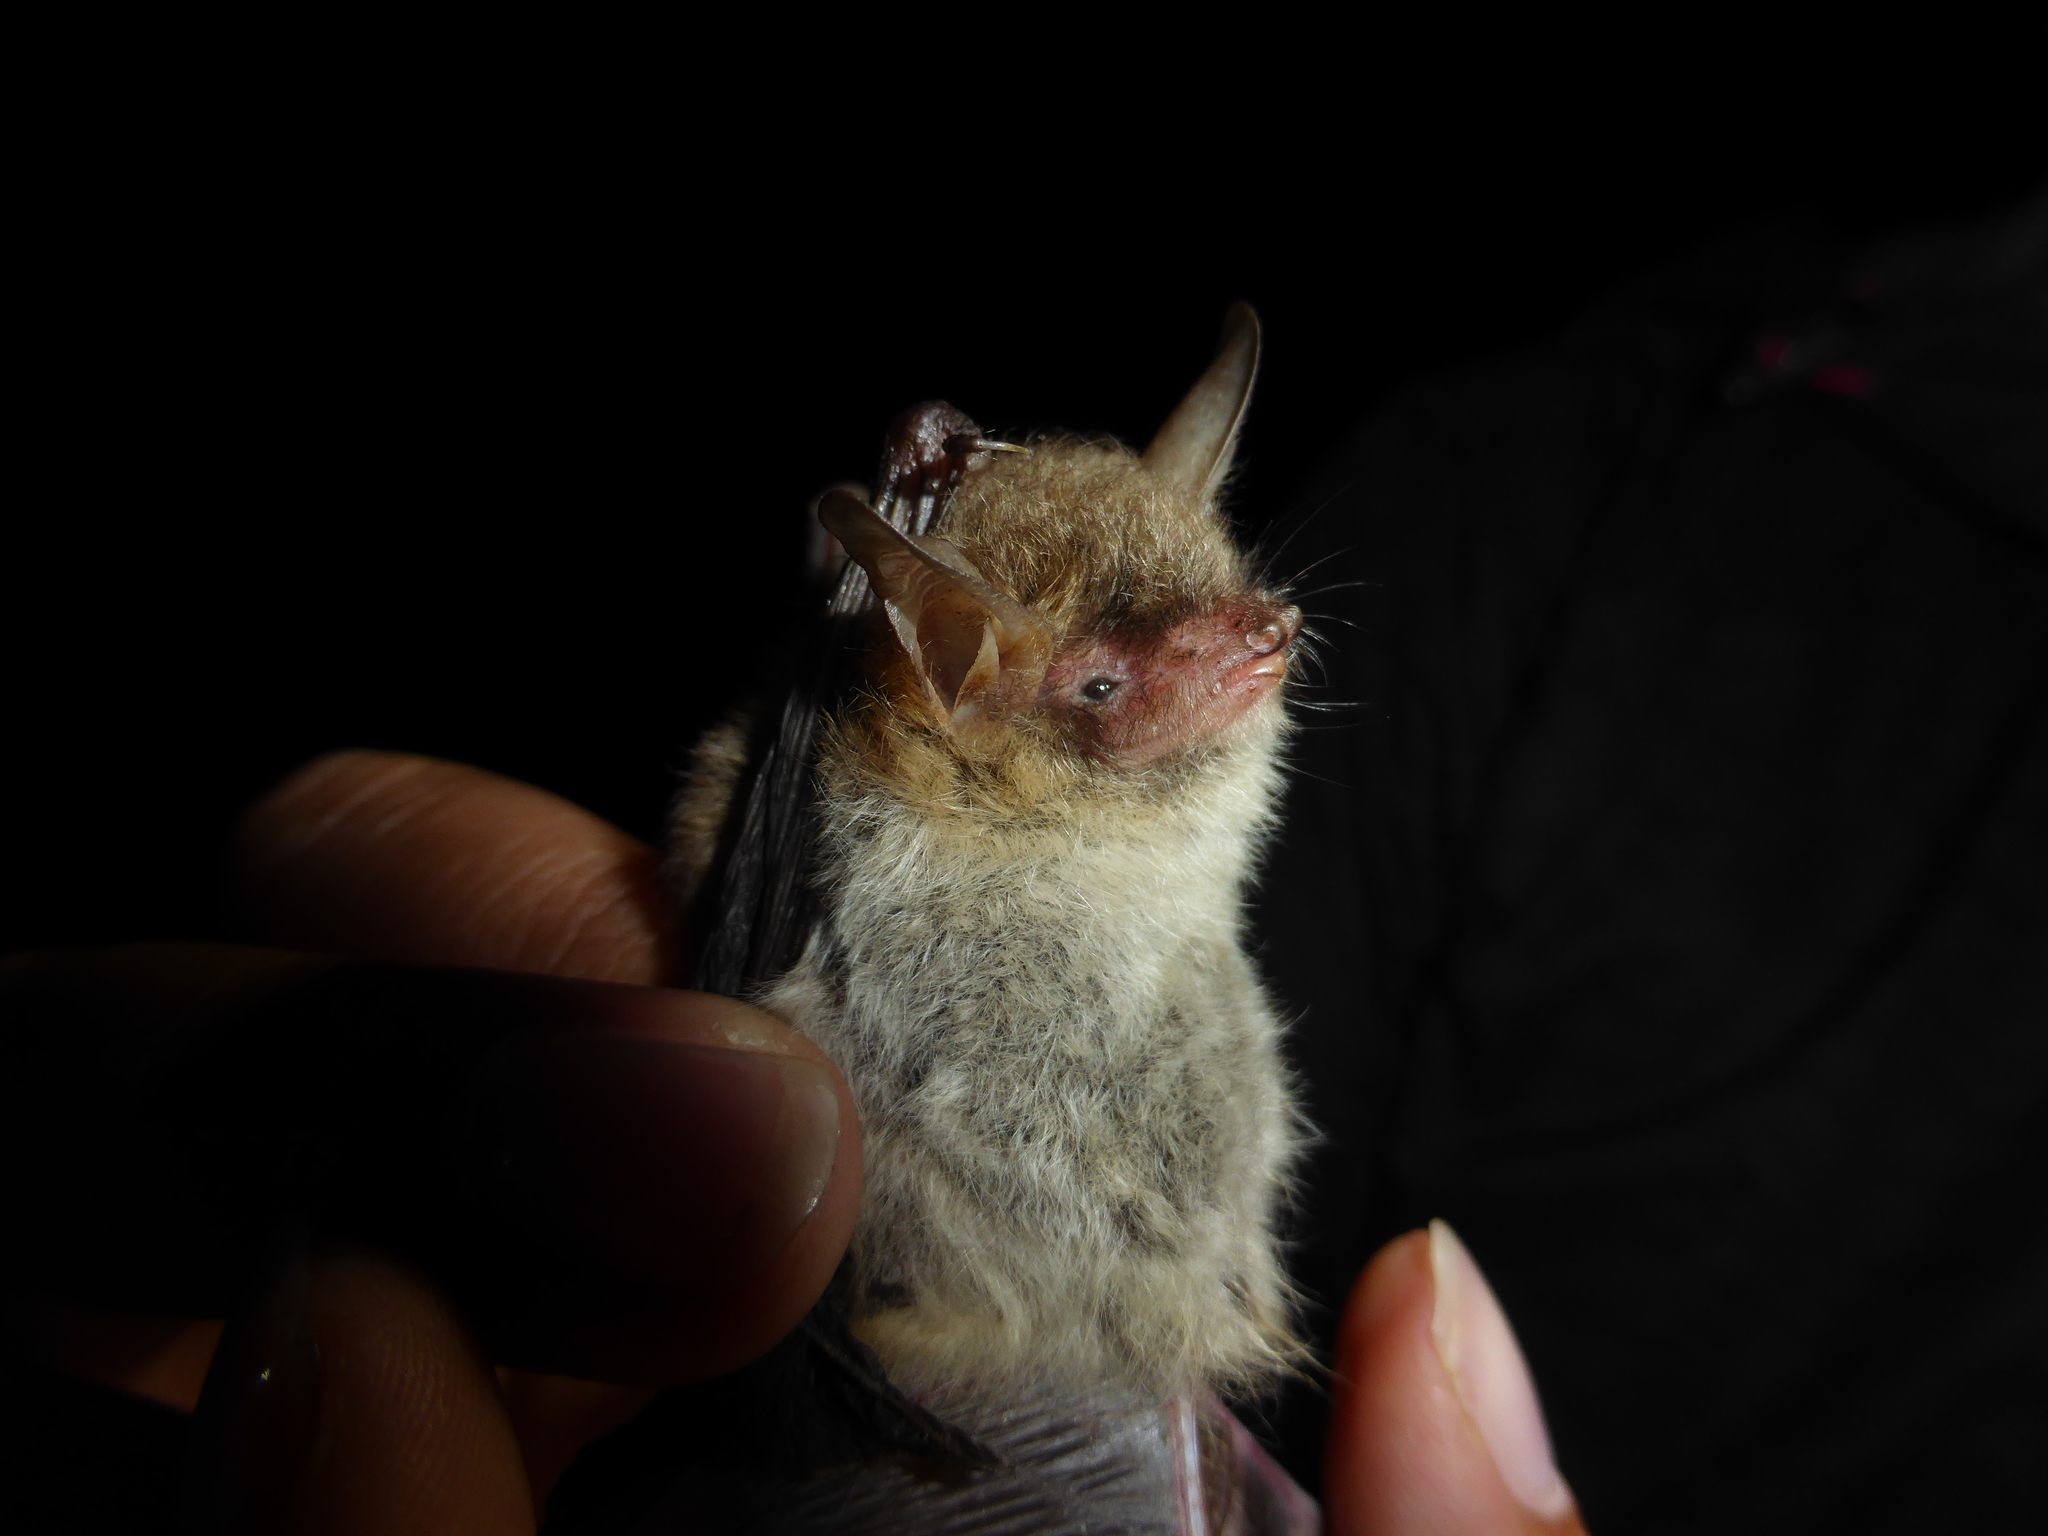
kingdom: Animalia
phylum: Chordata
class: Mammalia
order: Chiroptera
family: Vespertilionidae
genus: Myotis
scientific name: Myotis nattereri
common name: Natterer's bat
